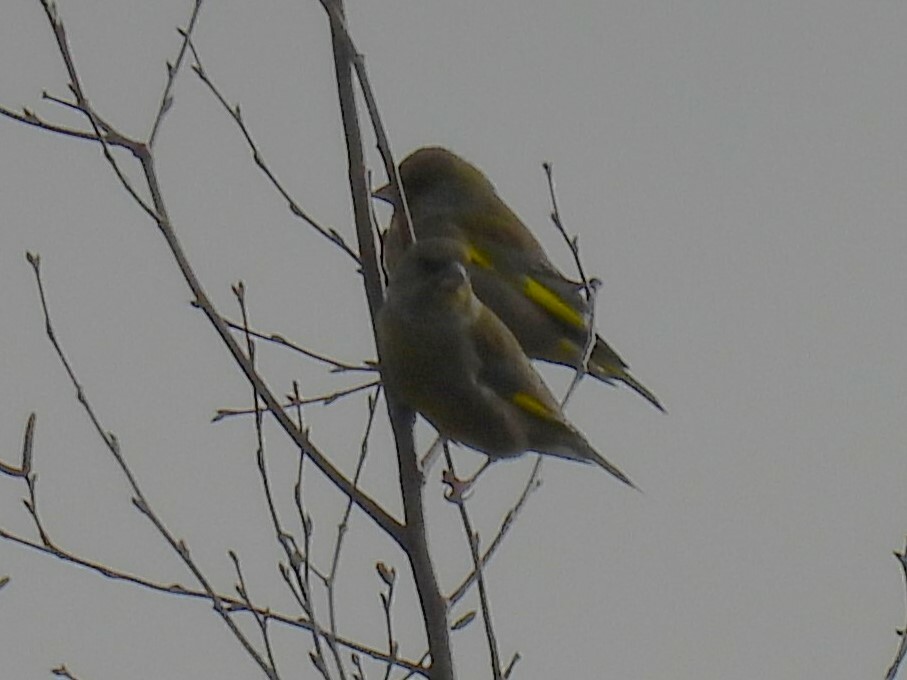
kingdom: Plantae
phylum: Tracheophyta
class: Liliopsida
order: Poales
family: Poaceae
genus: Chloris
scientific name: Chloris chloris
